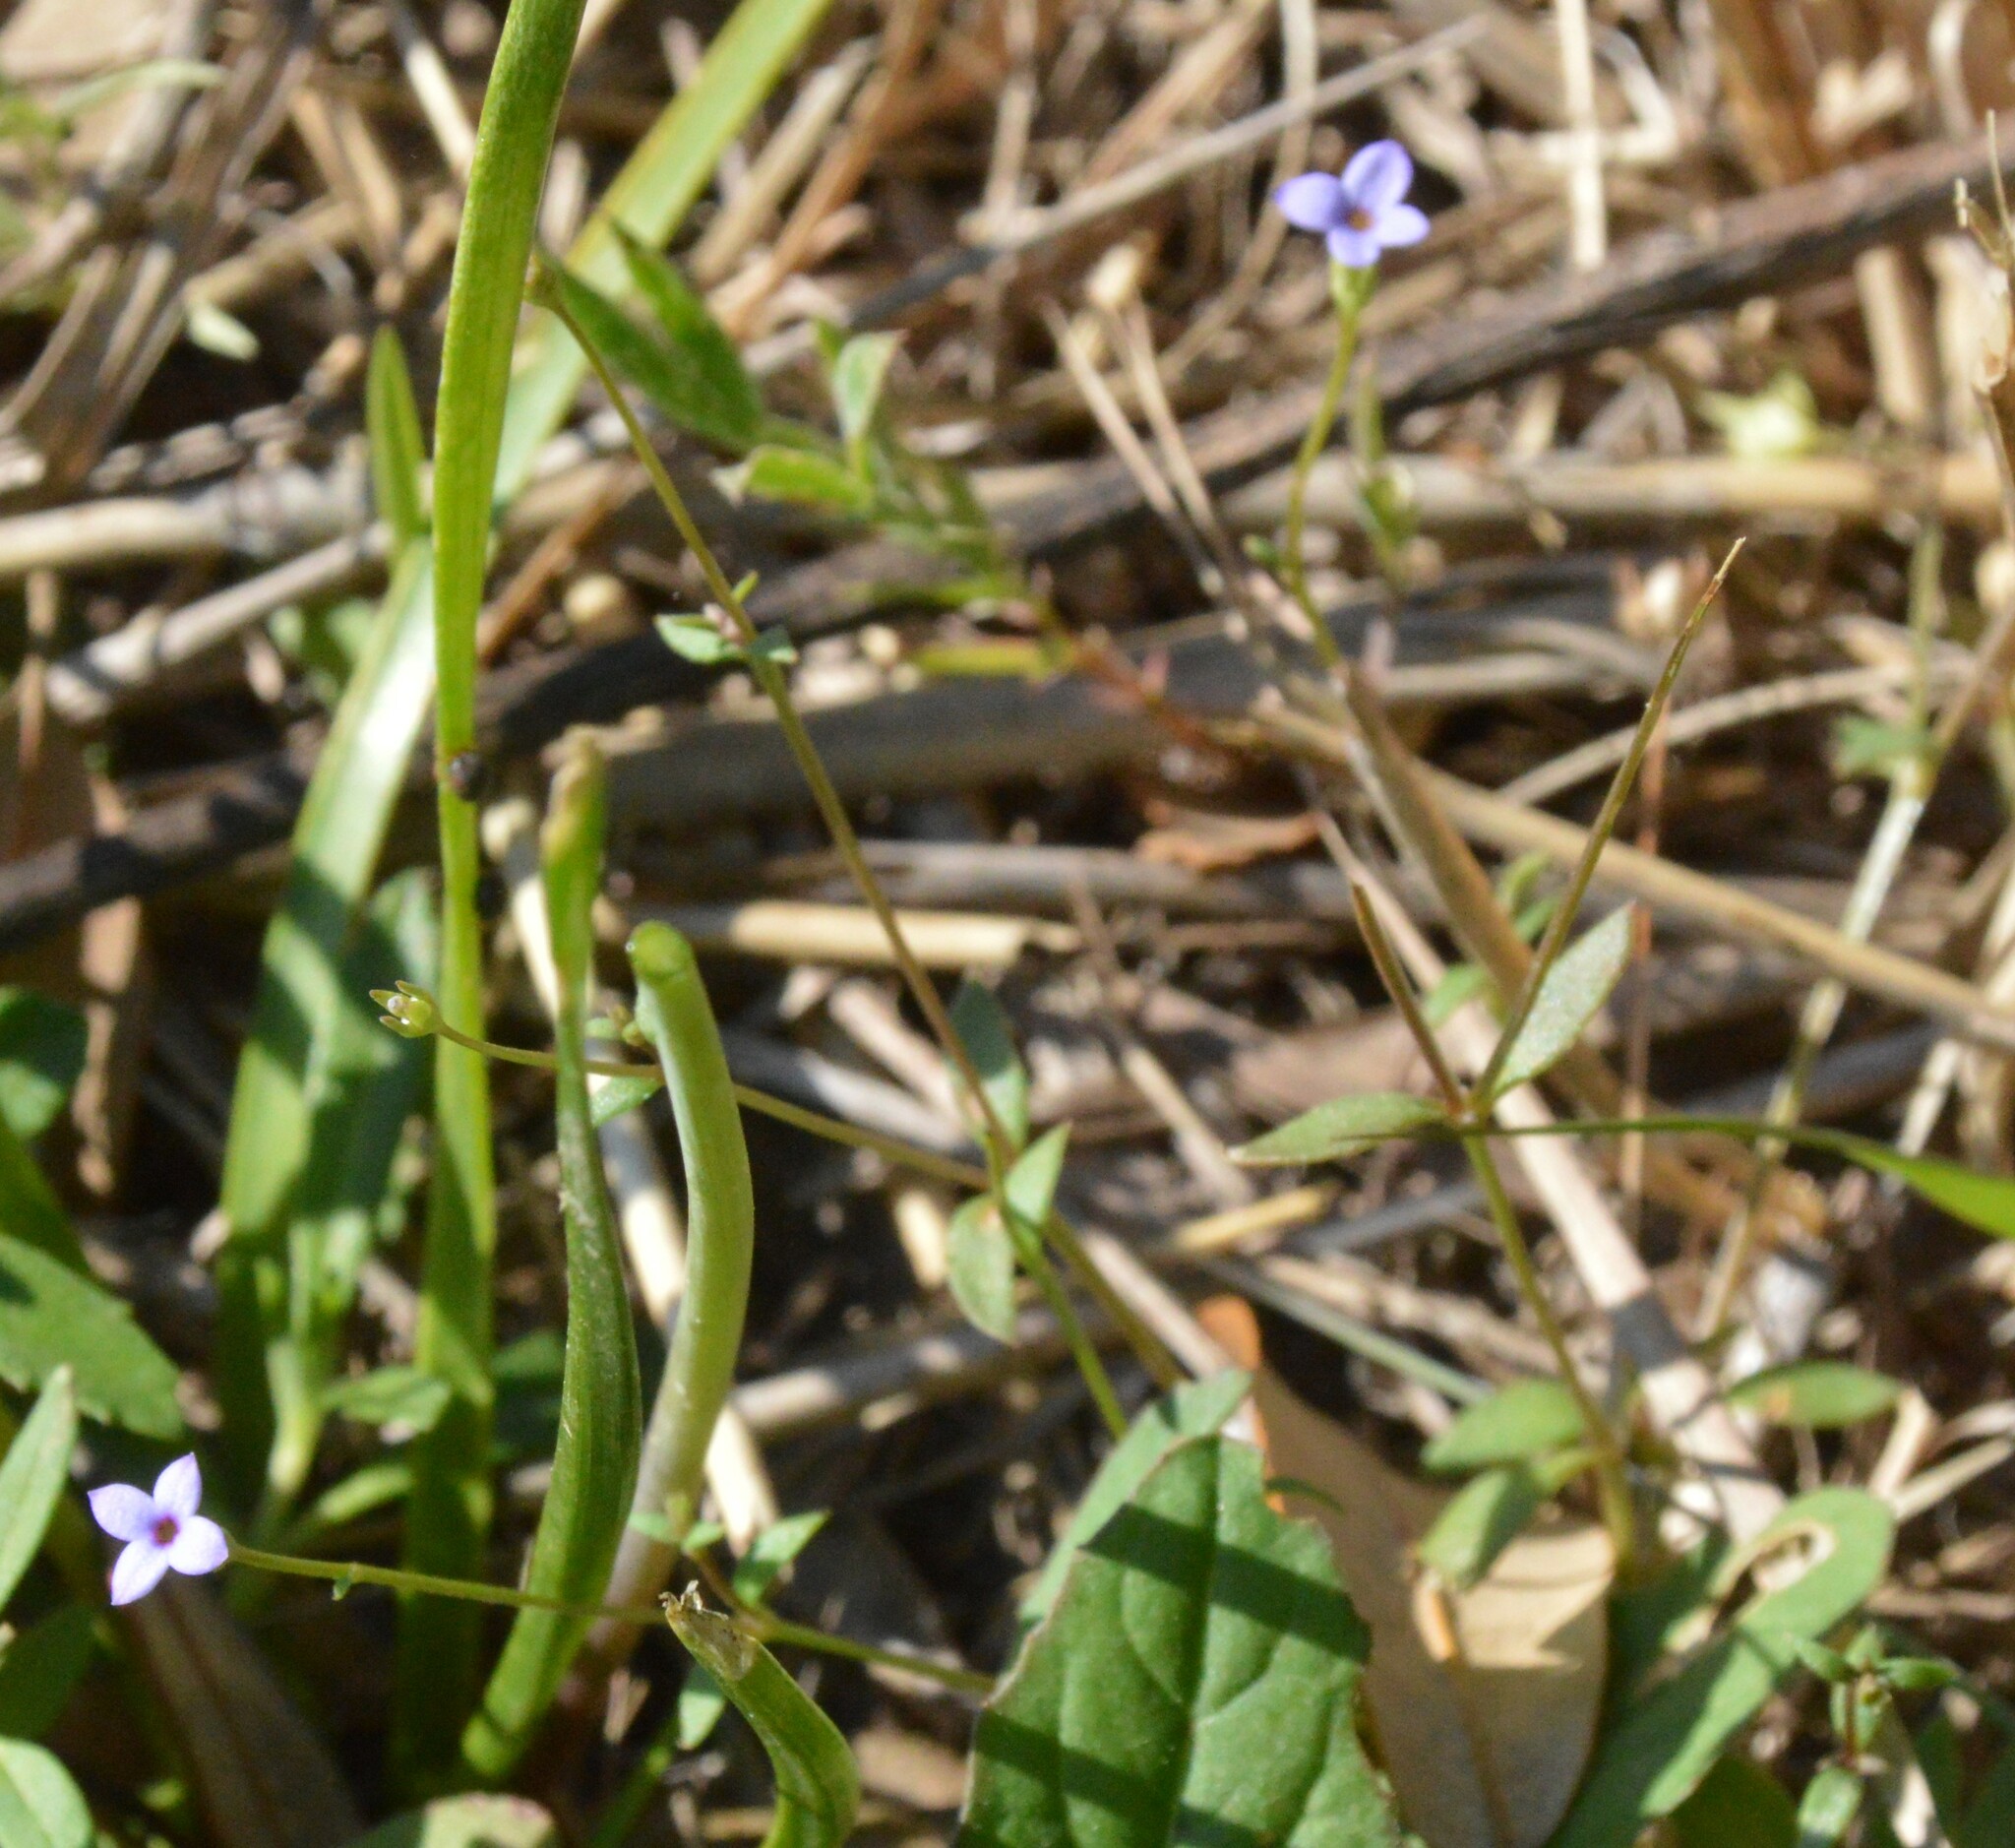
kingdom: Plantae
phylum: Tracheophyta
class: Magnoliopsida
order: Gentianales
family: Rubiaceae
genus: Houstonia
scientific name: Houstonia pusilla
